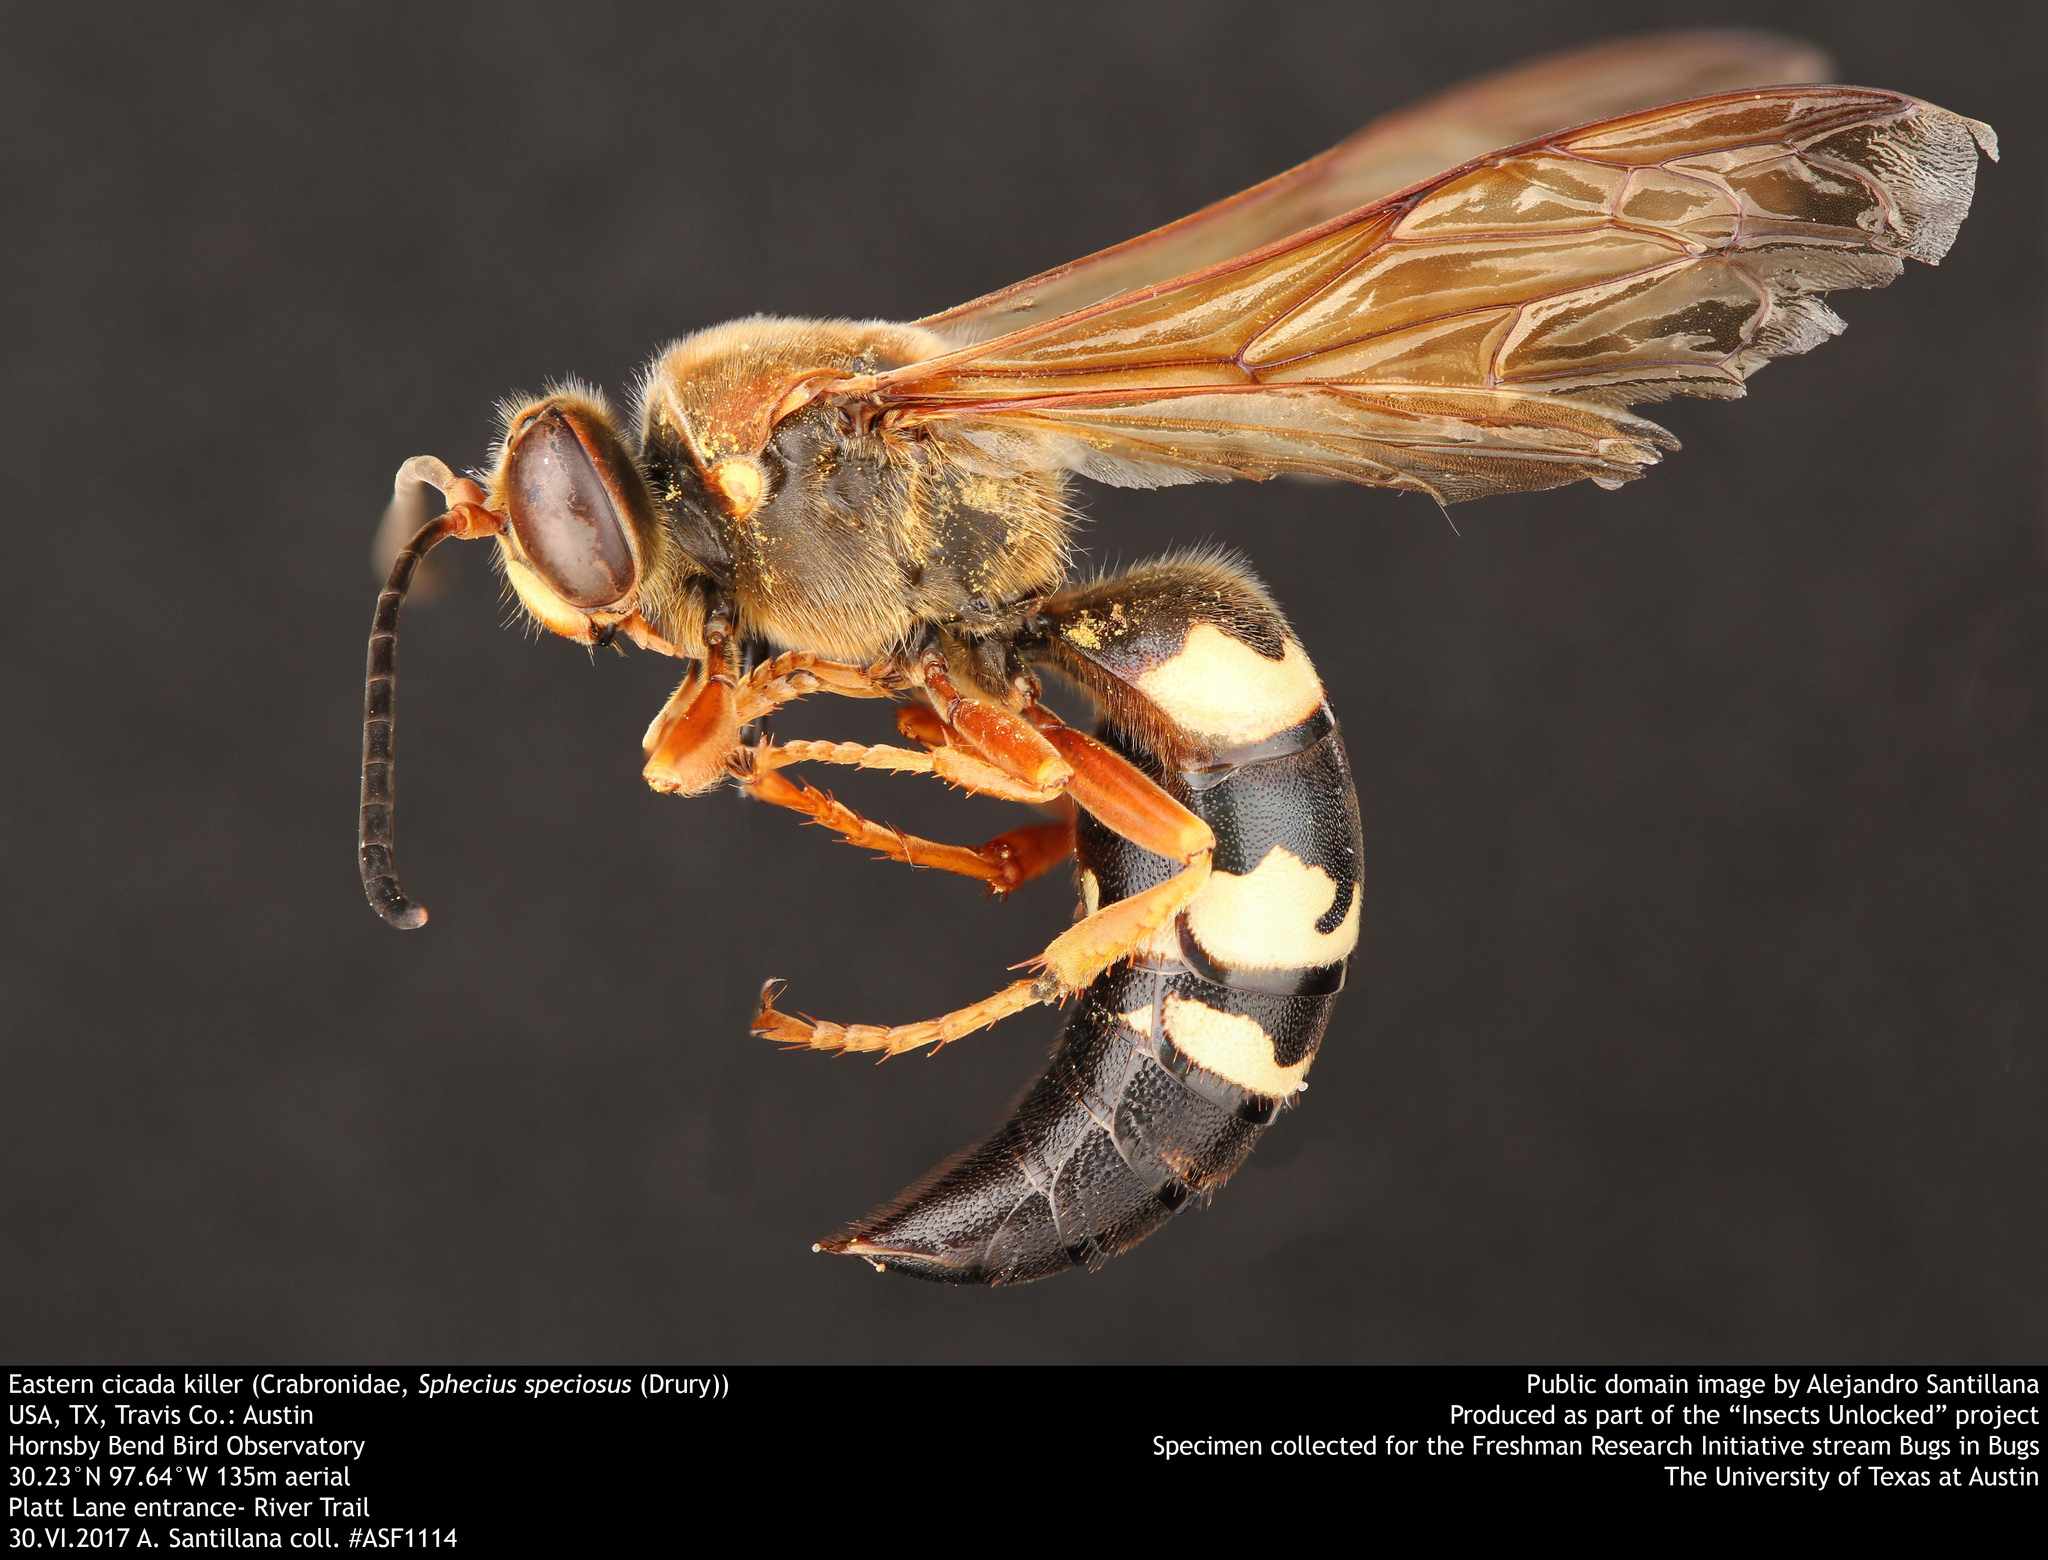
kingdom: Animalia
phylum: Arthropoda
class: Insecta
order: Hymenoptera
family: Crabronidae
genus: Sphecius
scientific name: Sphecius speciosus
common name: Cicada killer
